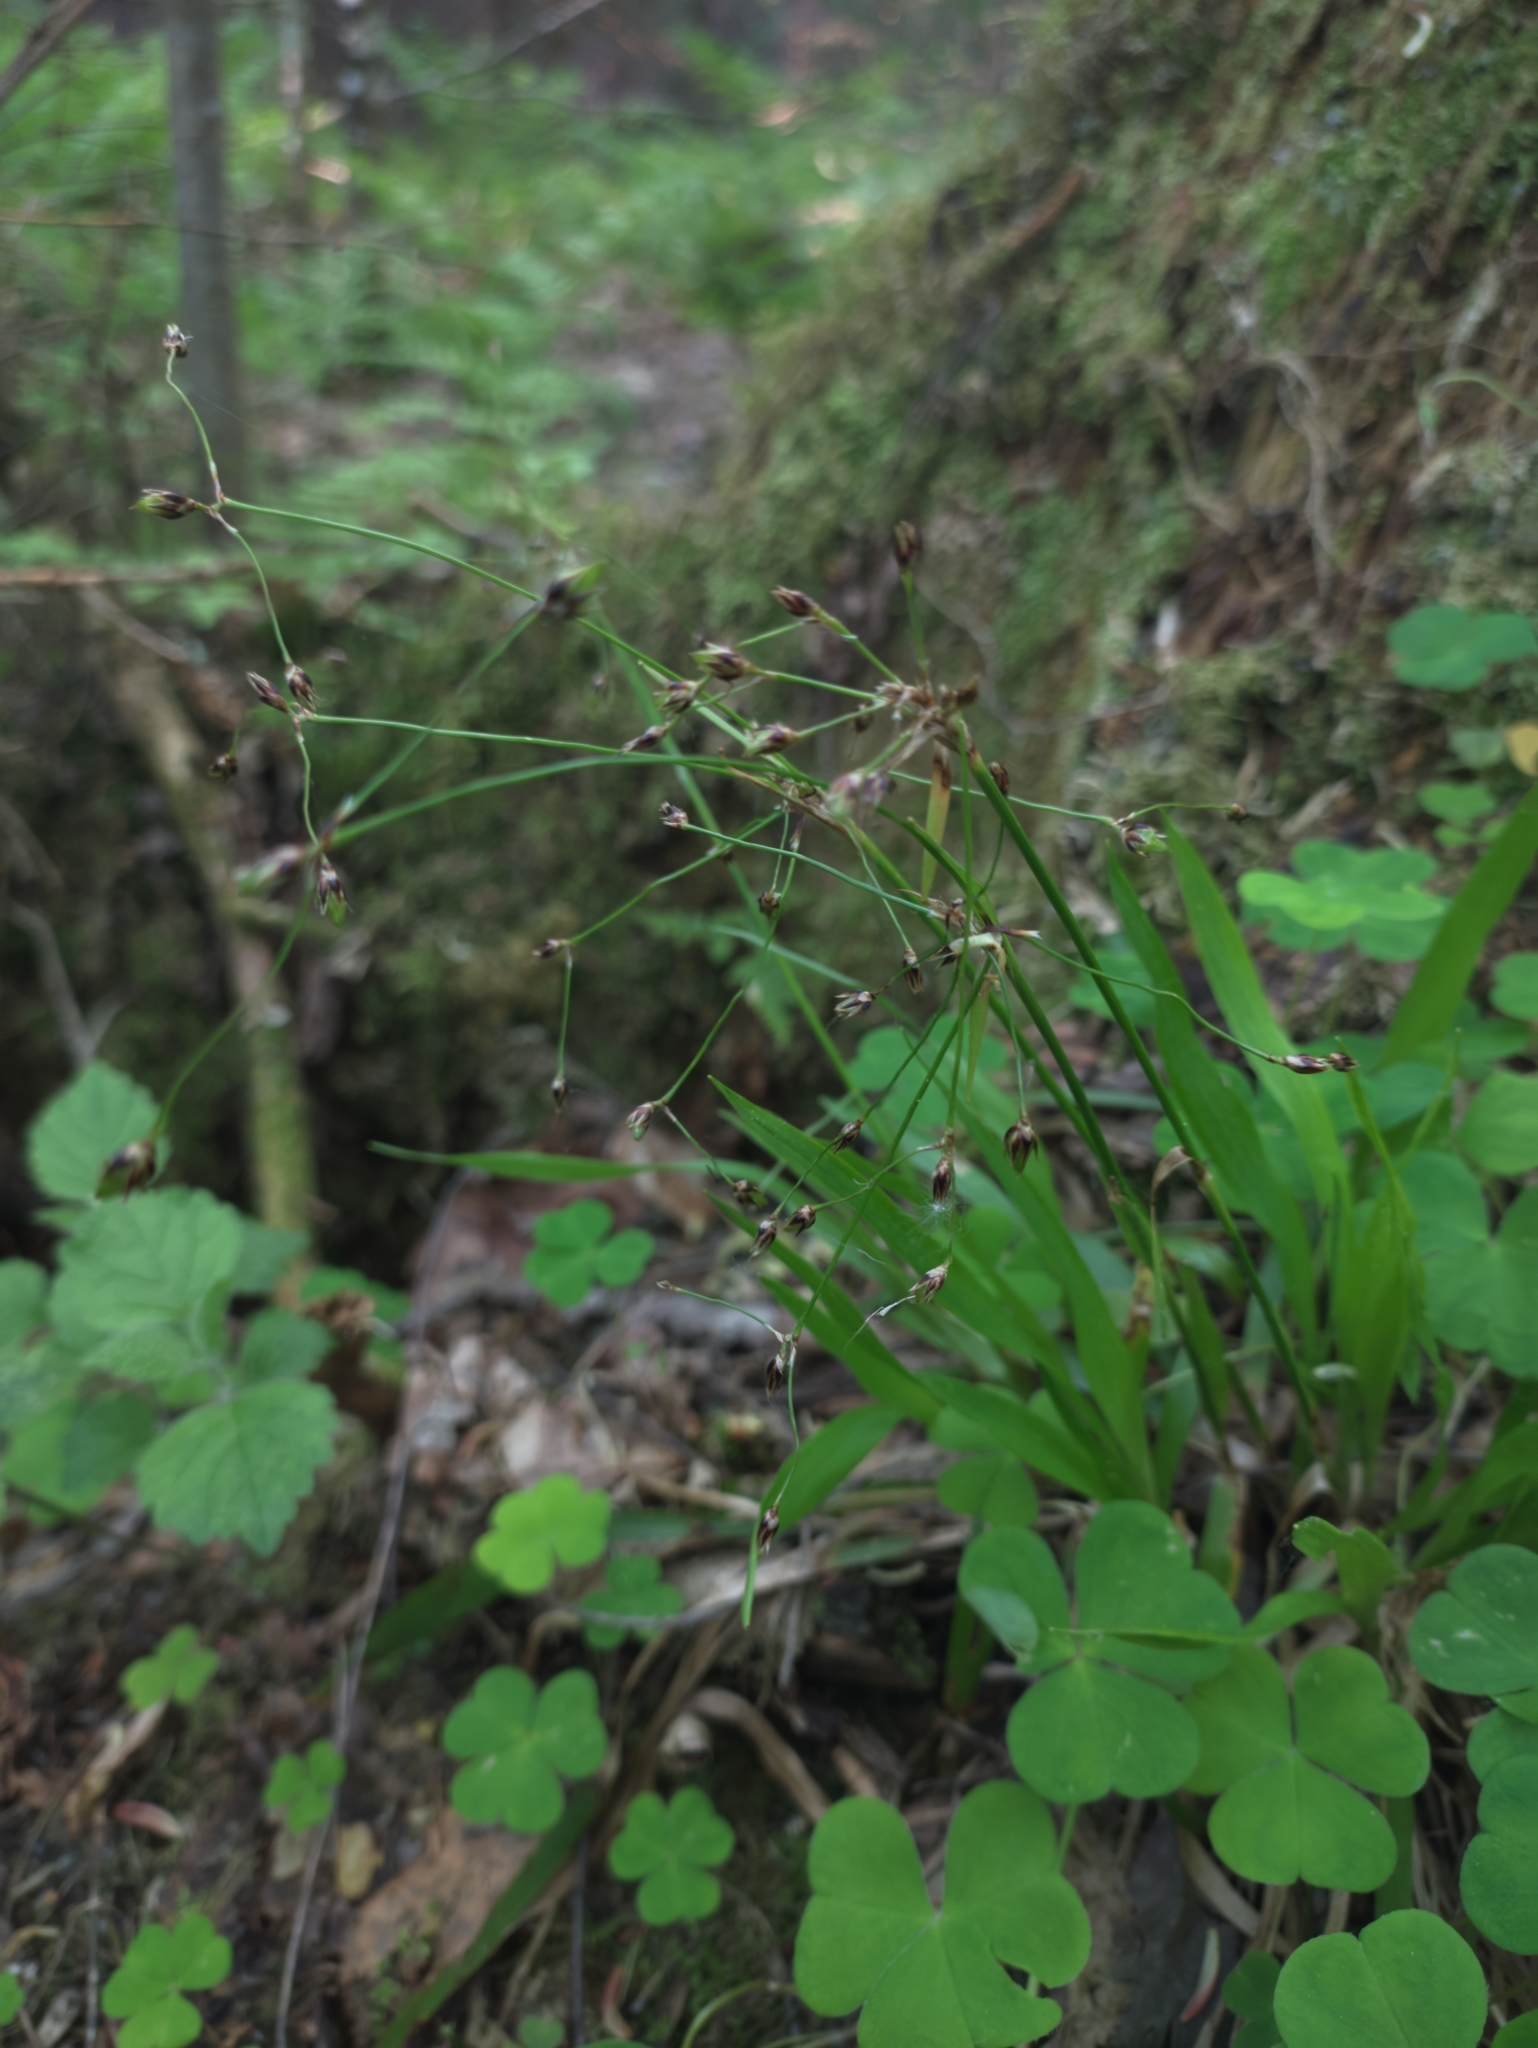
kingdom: Plantae
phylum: Tracheophyta
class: Liliopsida
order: Poales
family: Juncaceae
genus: Luzula
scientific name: Luzula pilosa
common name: Hairy wood-rush
